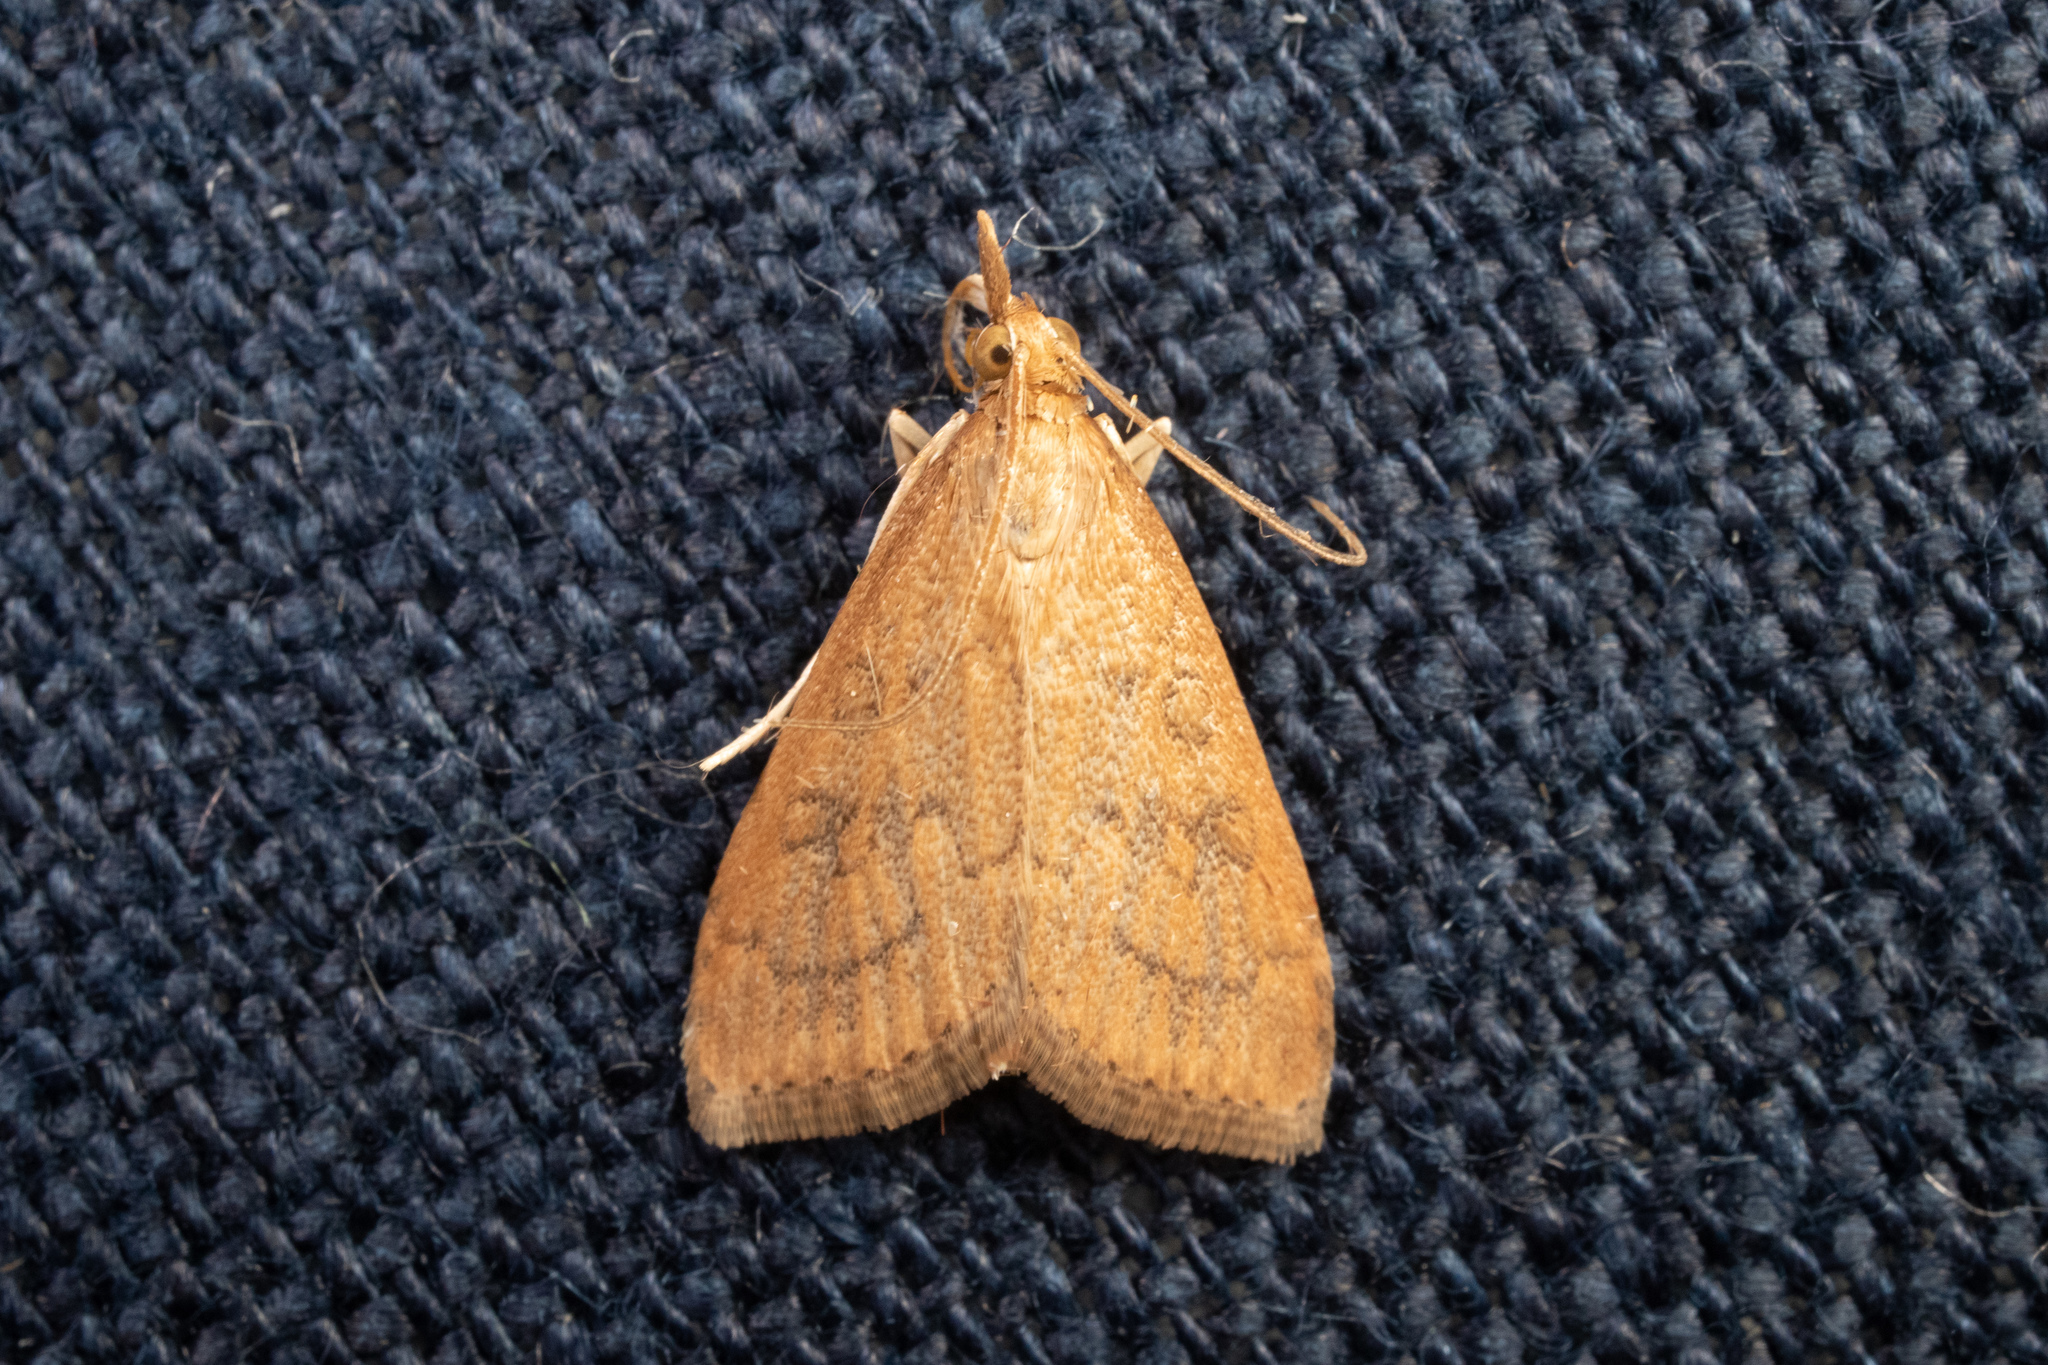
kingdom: Animalia
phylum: Arthropoda
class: Insecta
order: Lepidoptera
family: Crambidae
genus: Udea
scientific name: Udea rubigalis
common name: Celery leaftier moth
